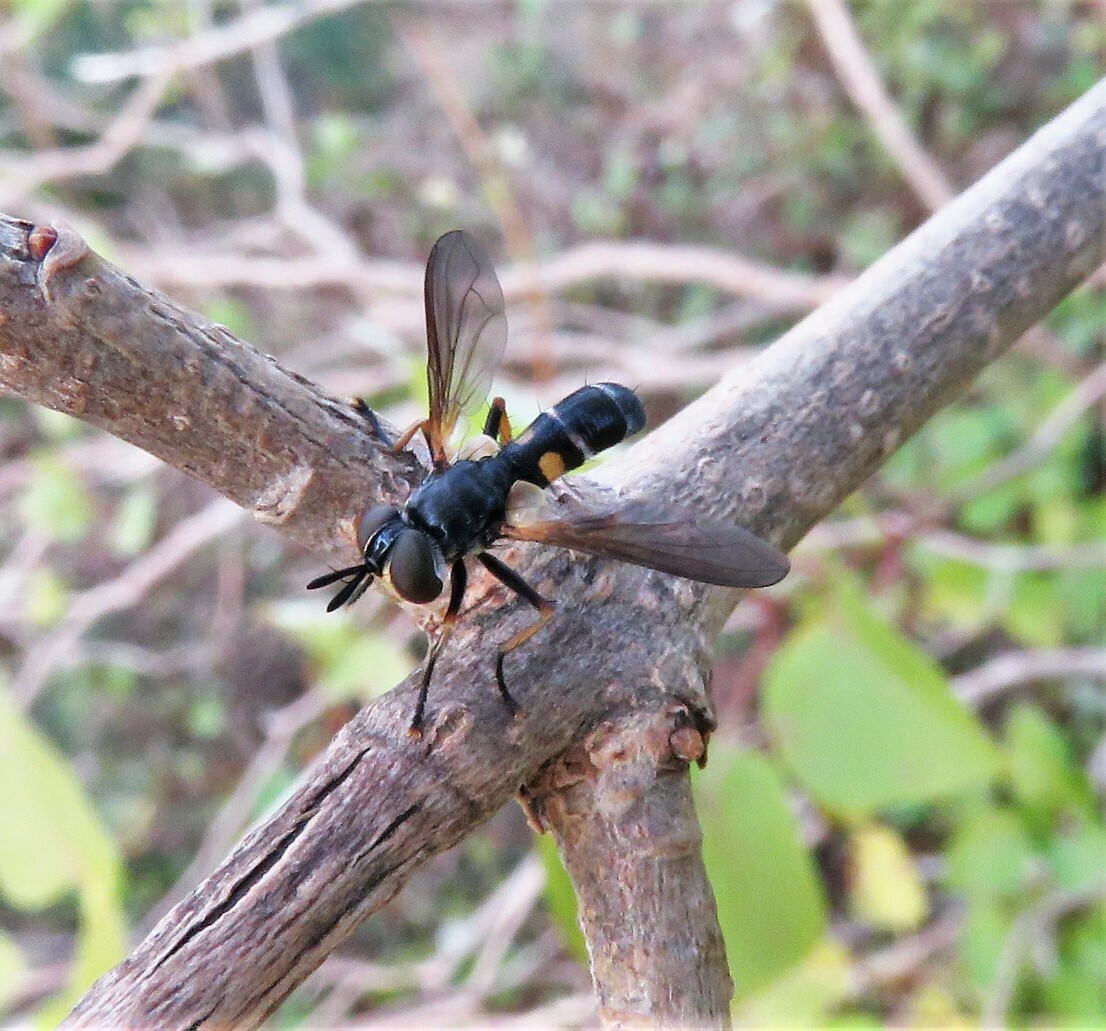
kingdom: Animalia
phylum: Arthropoda
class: Insecta
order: Diptera
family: Tachinidae
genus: Hemyda
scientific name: Hemyda aurata
